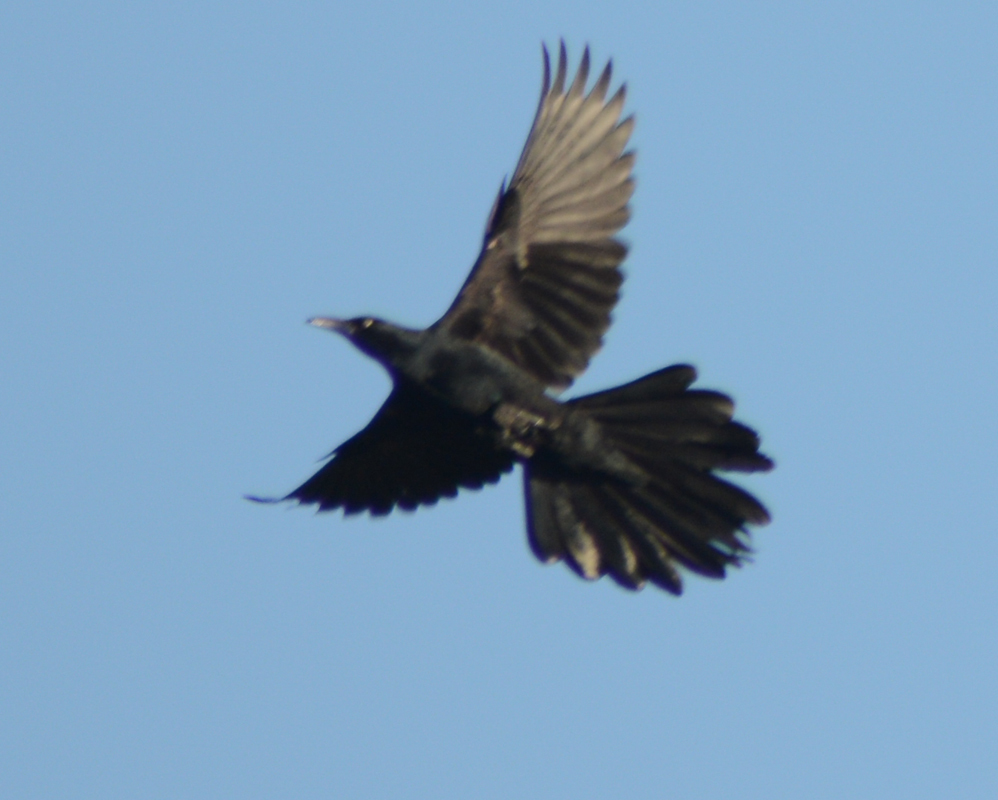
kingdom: Animalia
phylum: Chordata
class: Aves
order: Passeriformes
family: Icteridae
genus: Quiscalus
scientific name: Quiscalus mexicanus
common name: Great-tailed grackle
